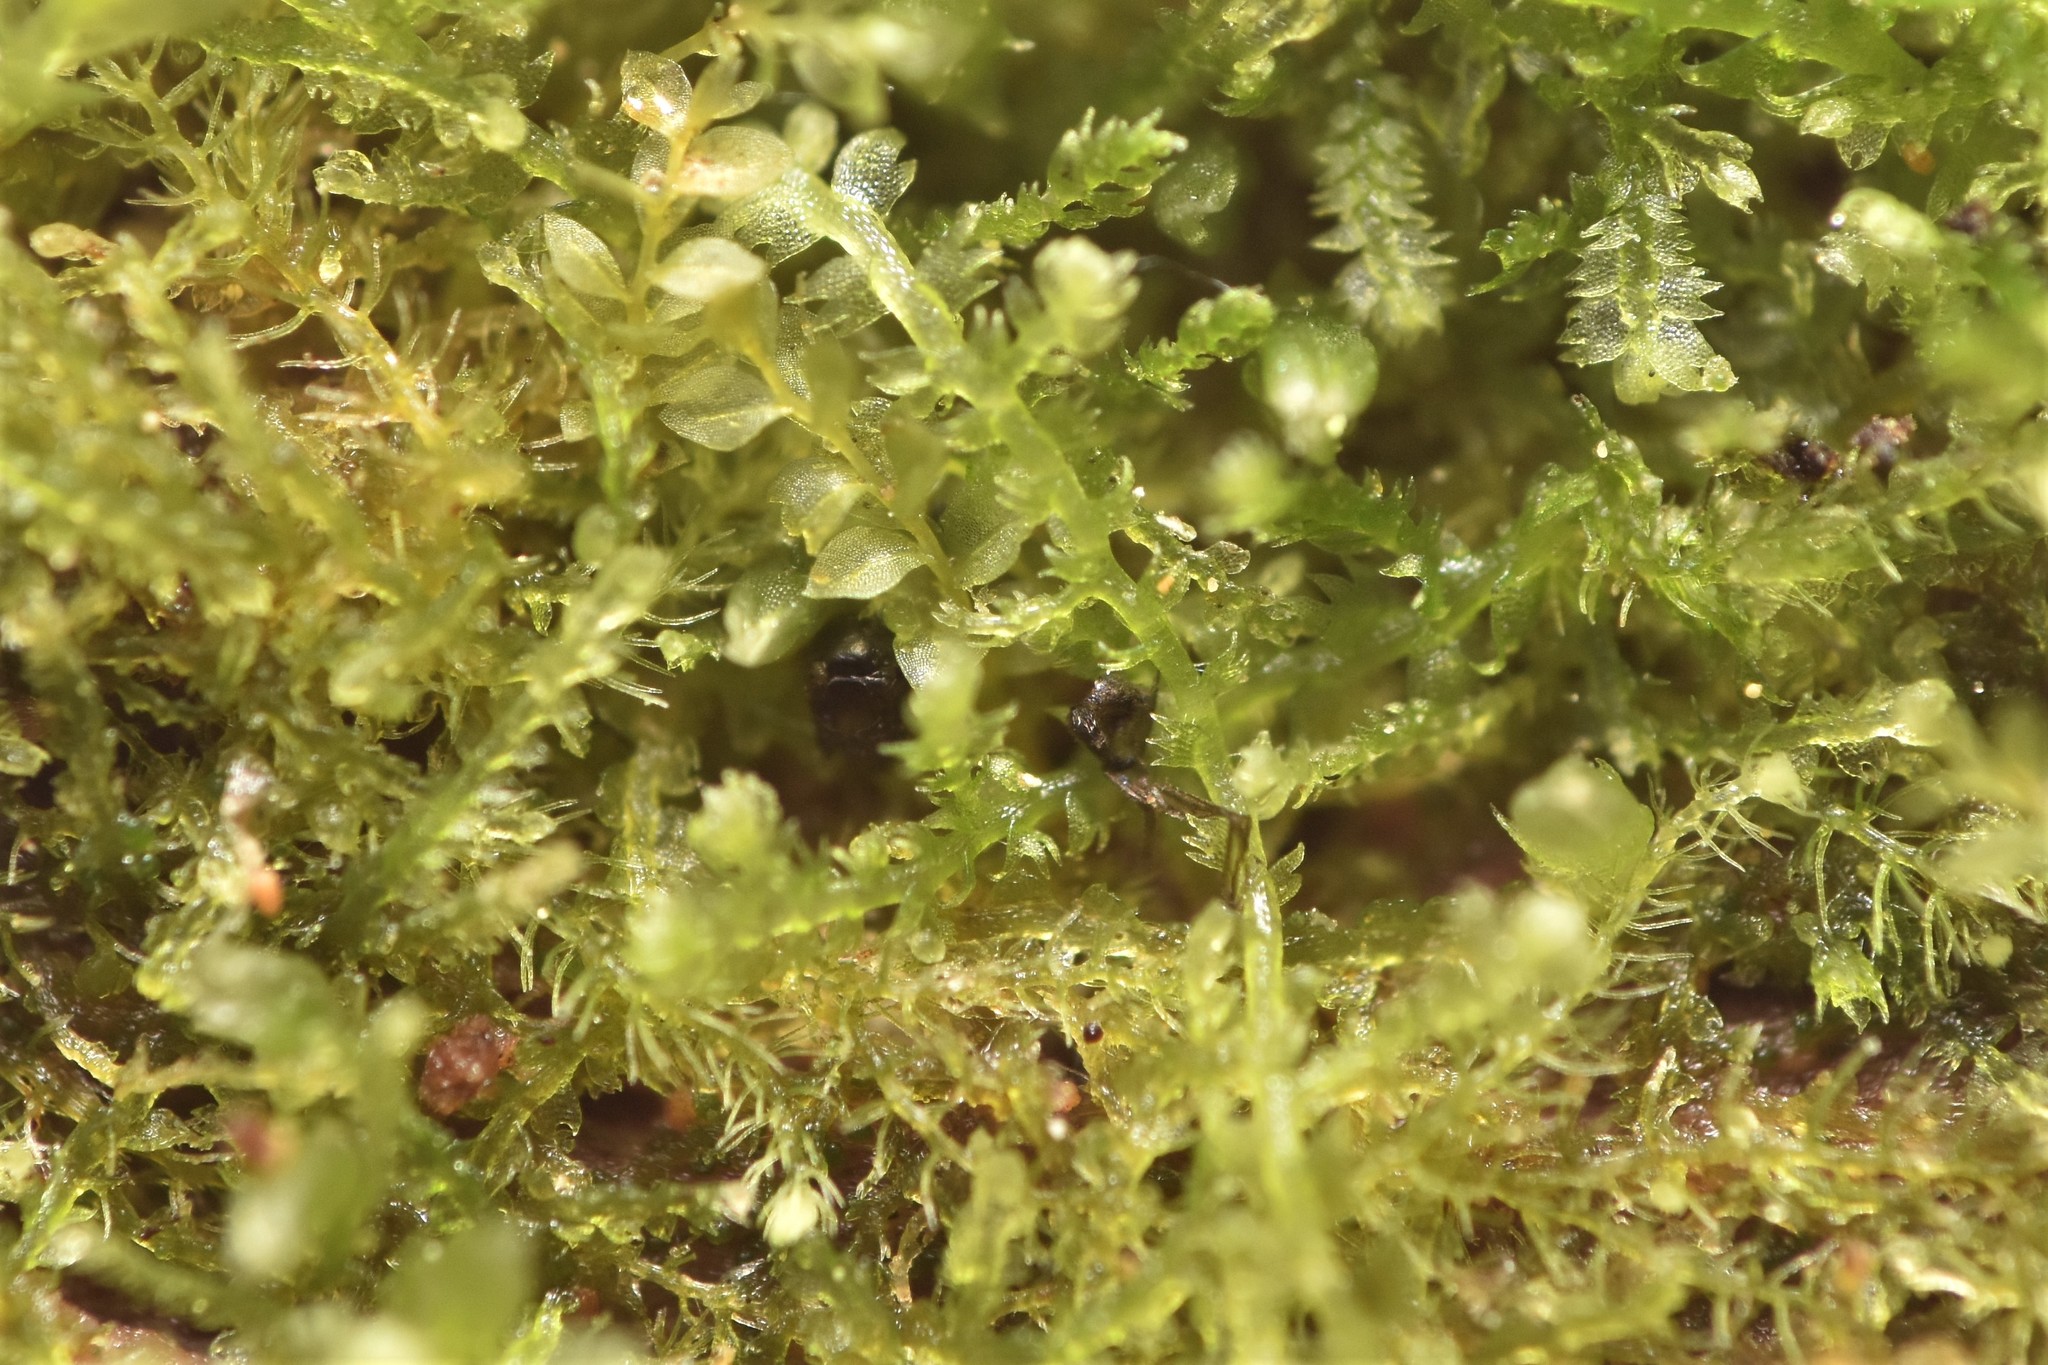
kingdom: Plantae
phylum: Marchantiophyta
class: Jungermanniopsida
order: Jungermanniales
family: Lepidoziaceae
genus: Lepidozia
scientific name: Lepidozia reptans
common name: Creeping fingerwort
